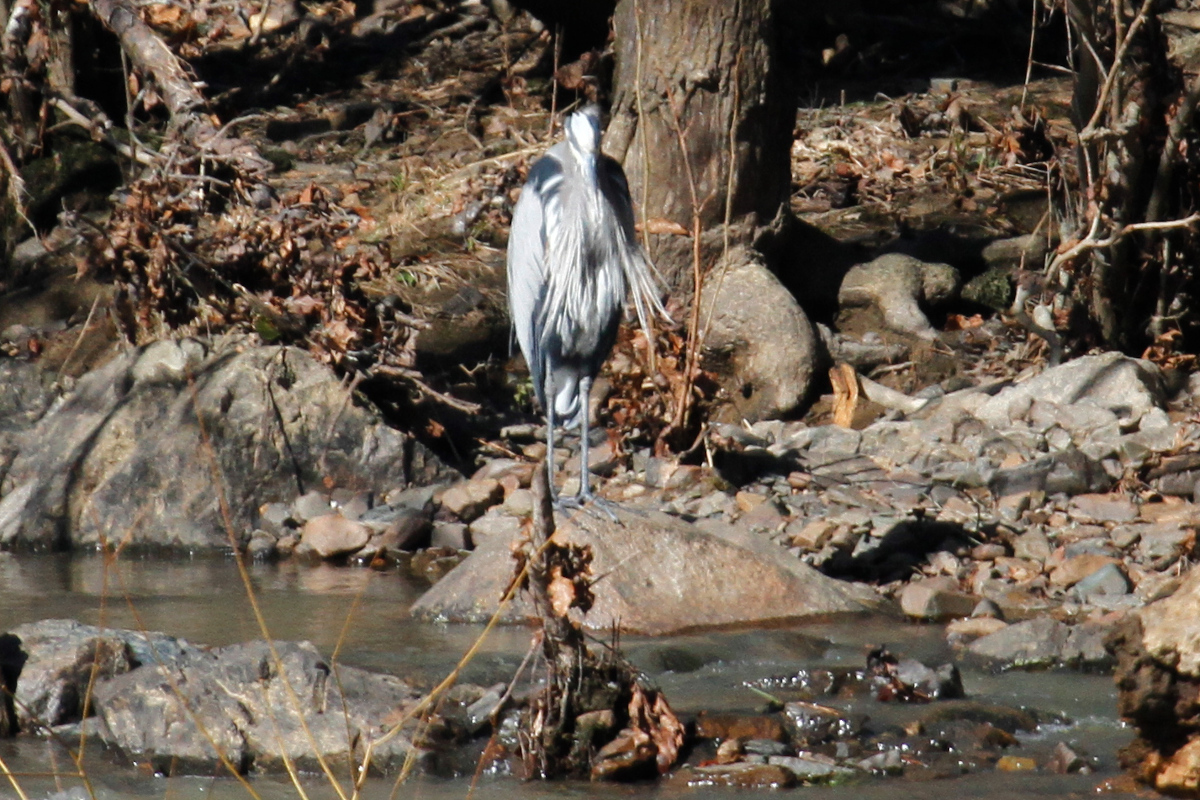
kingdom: Animalia
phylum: Chordata
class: Aves
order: Pelecaniformes
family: Ardeidae
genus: Ardea
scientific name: Ardea herodias
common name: Great blue heron
